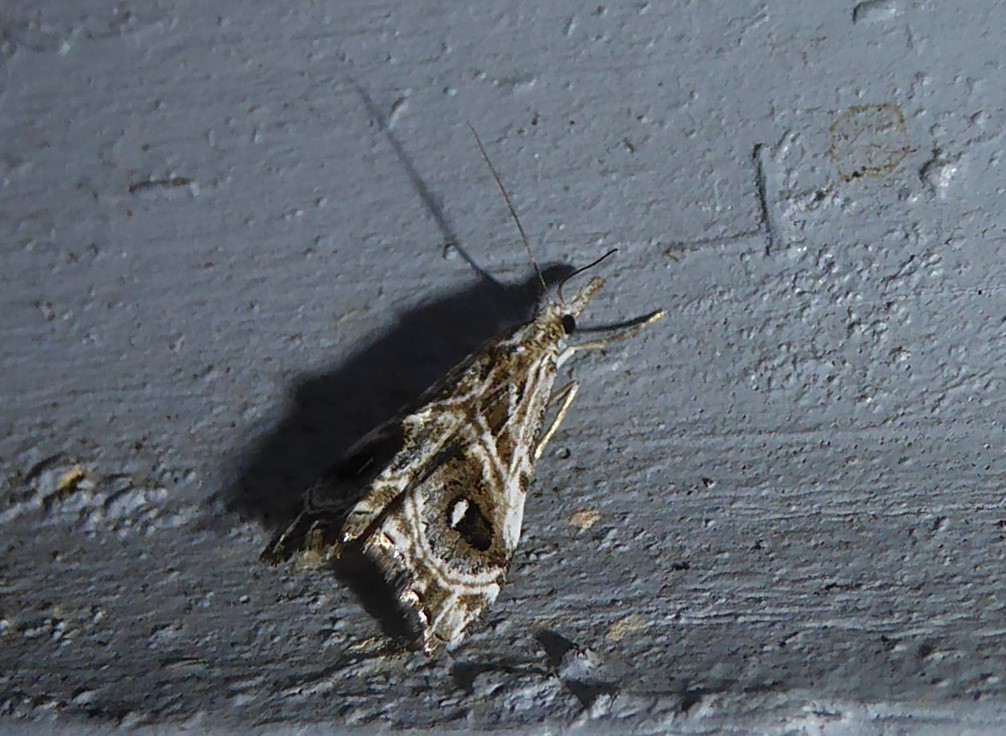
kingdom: Animalia
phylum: Arthropoda
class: Insecta
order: Lepidoptera
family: Crambidae
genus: Gadira
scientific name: Gadira acerella
